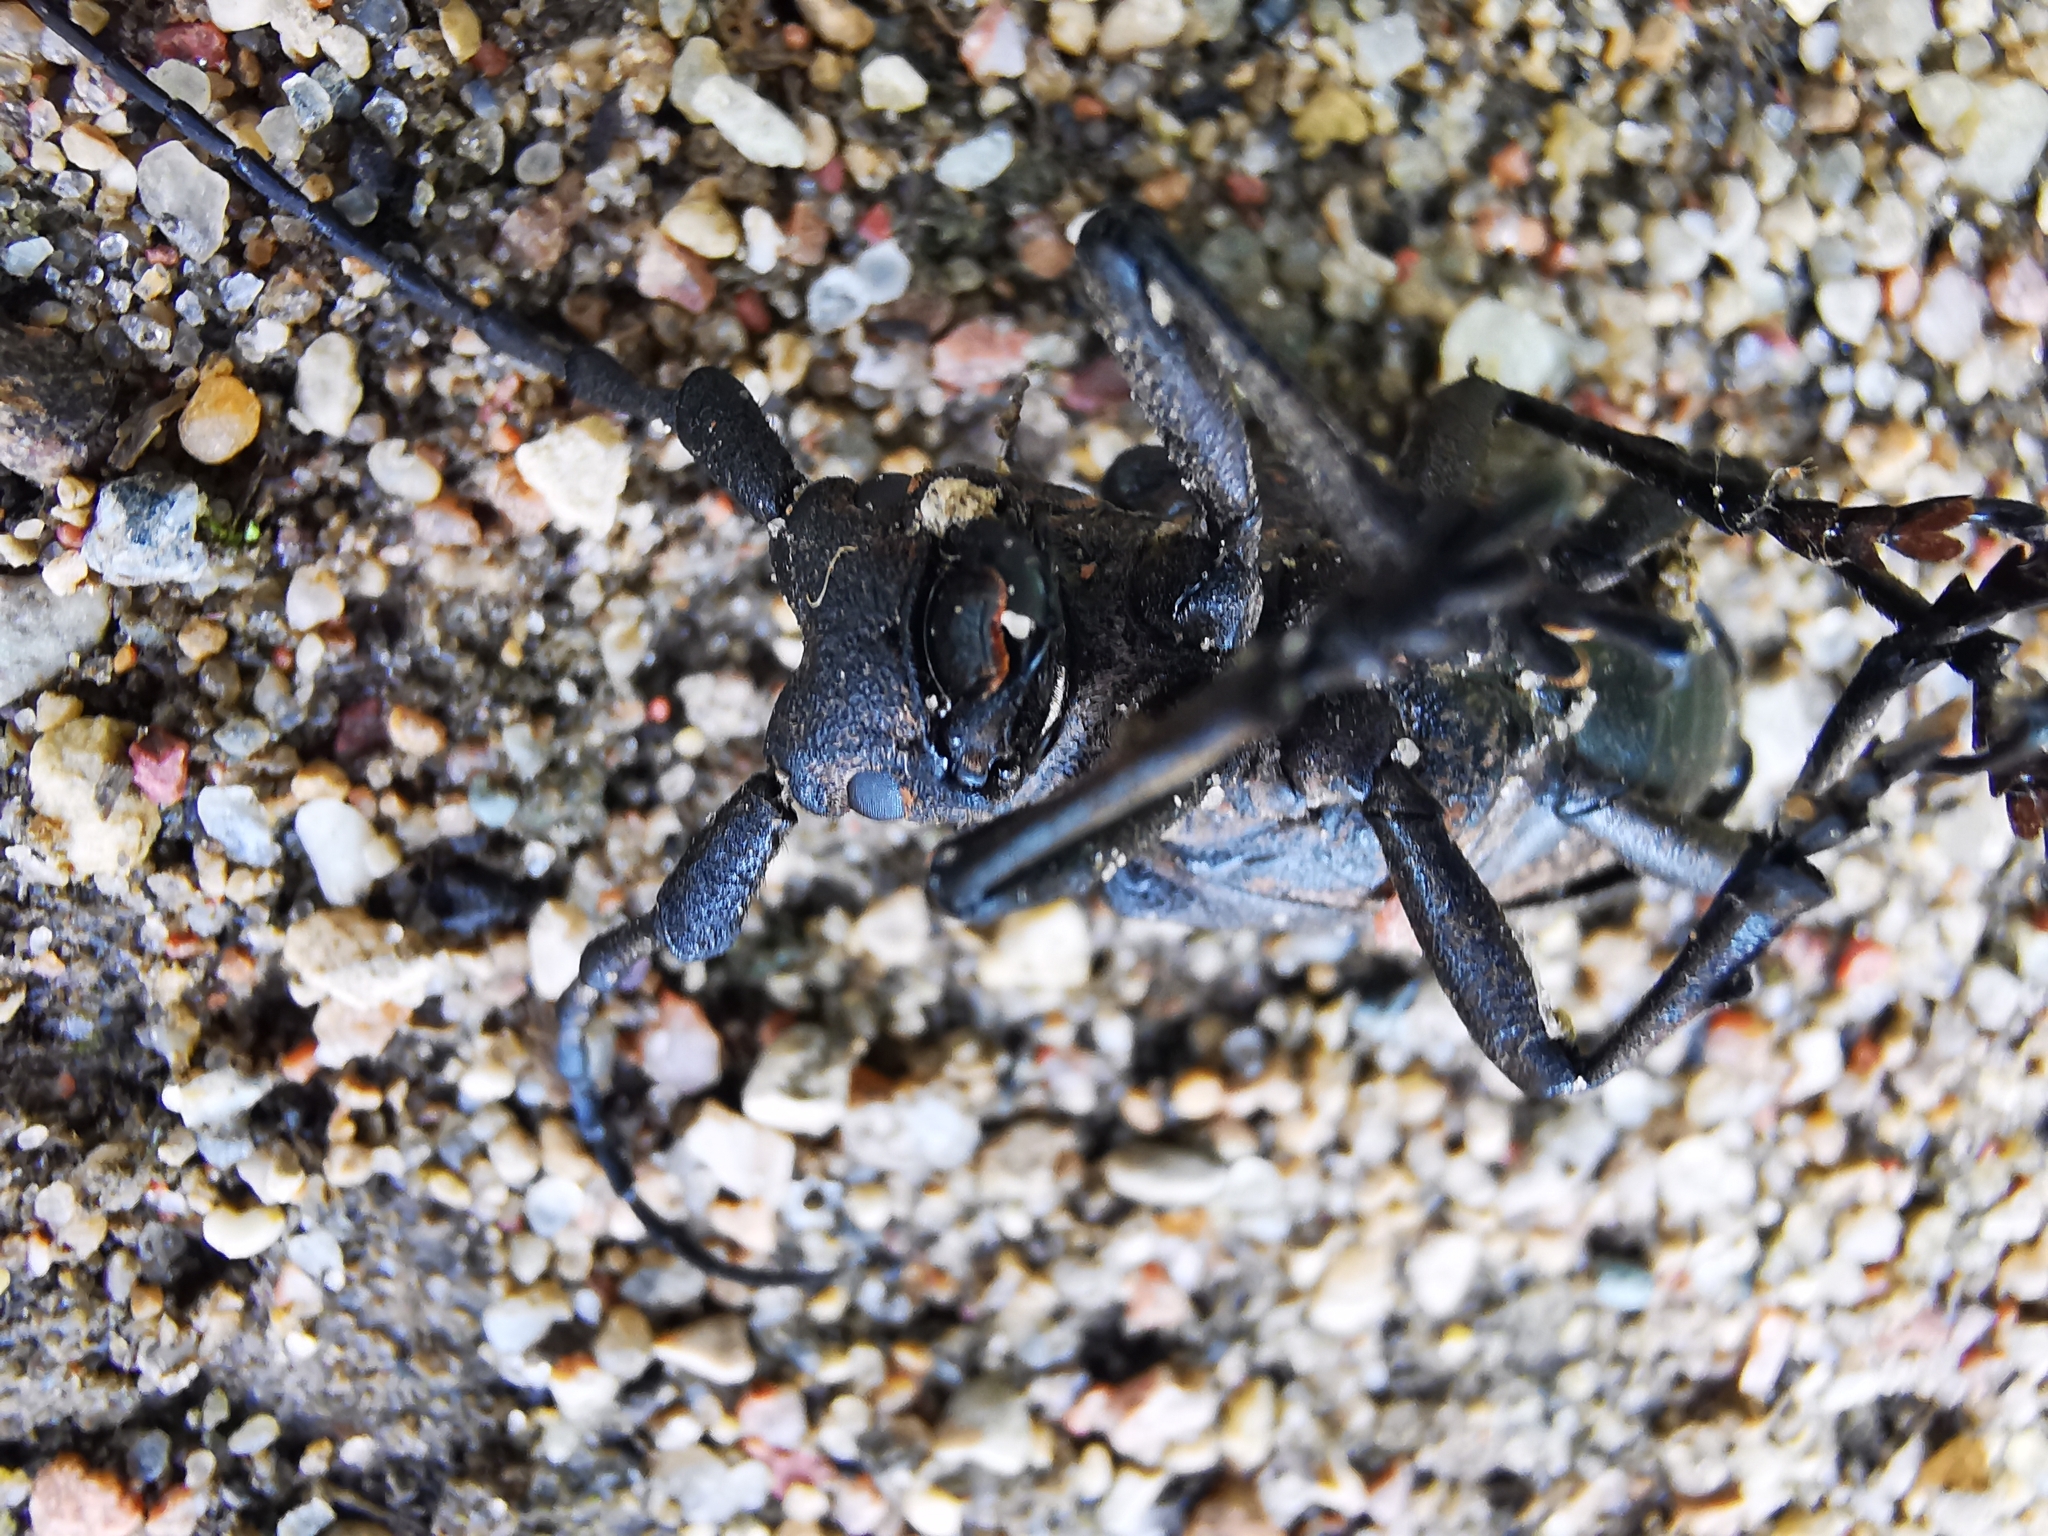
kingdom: Animalia
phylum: Arthropoda
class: Insecta
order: Coleoptera
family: Cerambycidae
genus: Lamia
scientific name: Lamia textor
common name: Weaver beetle
